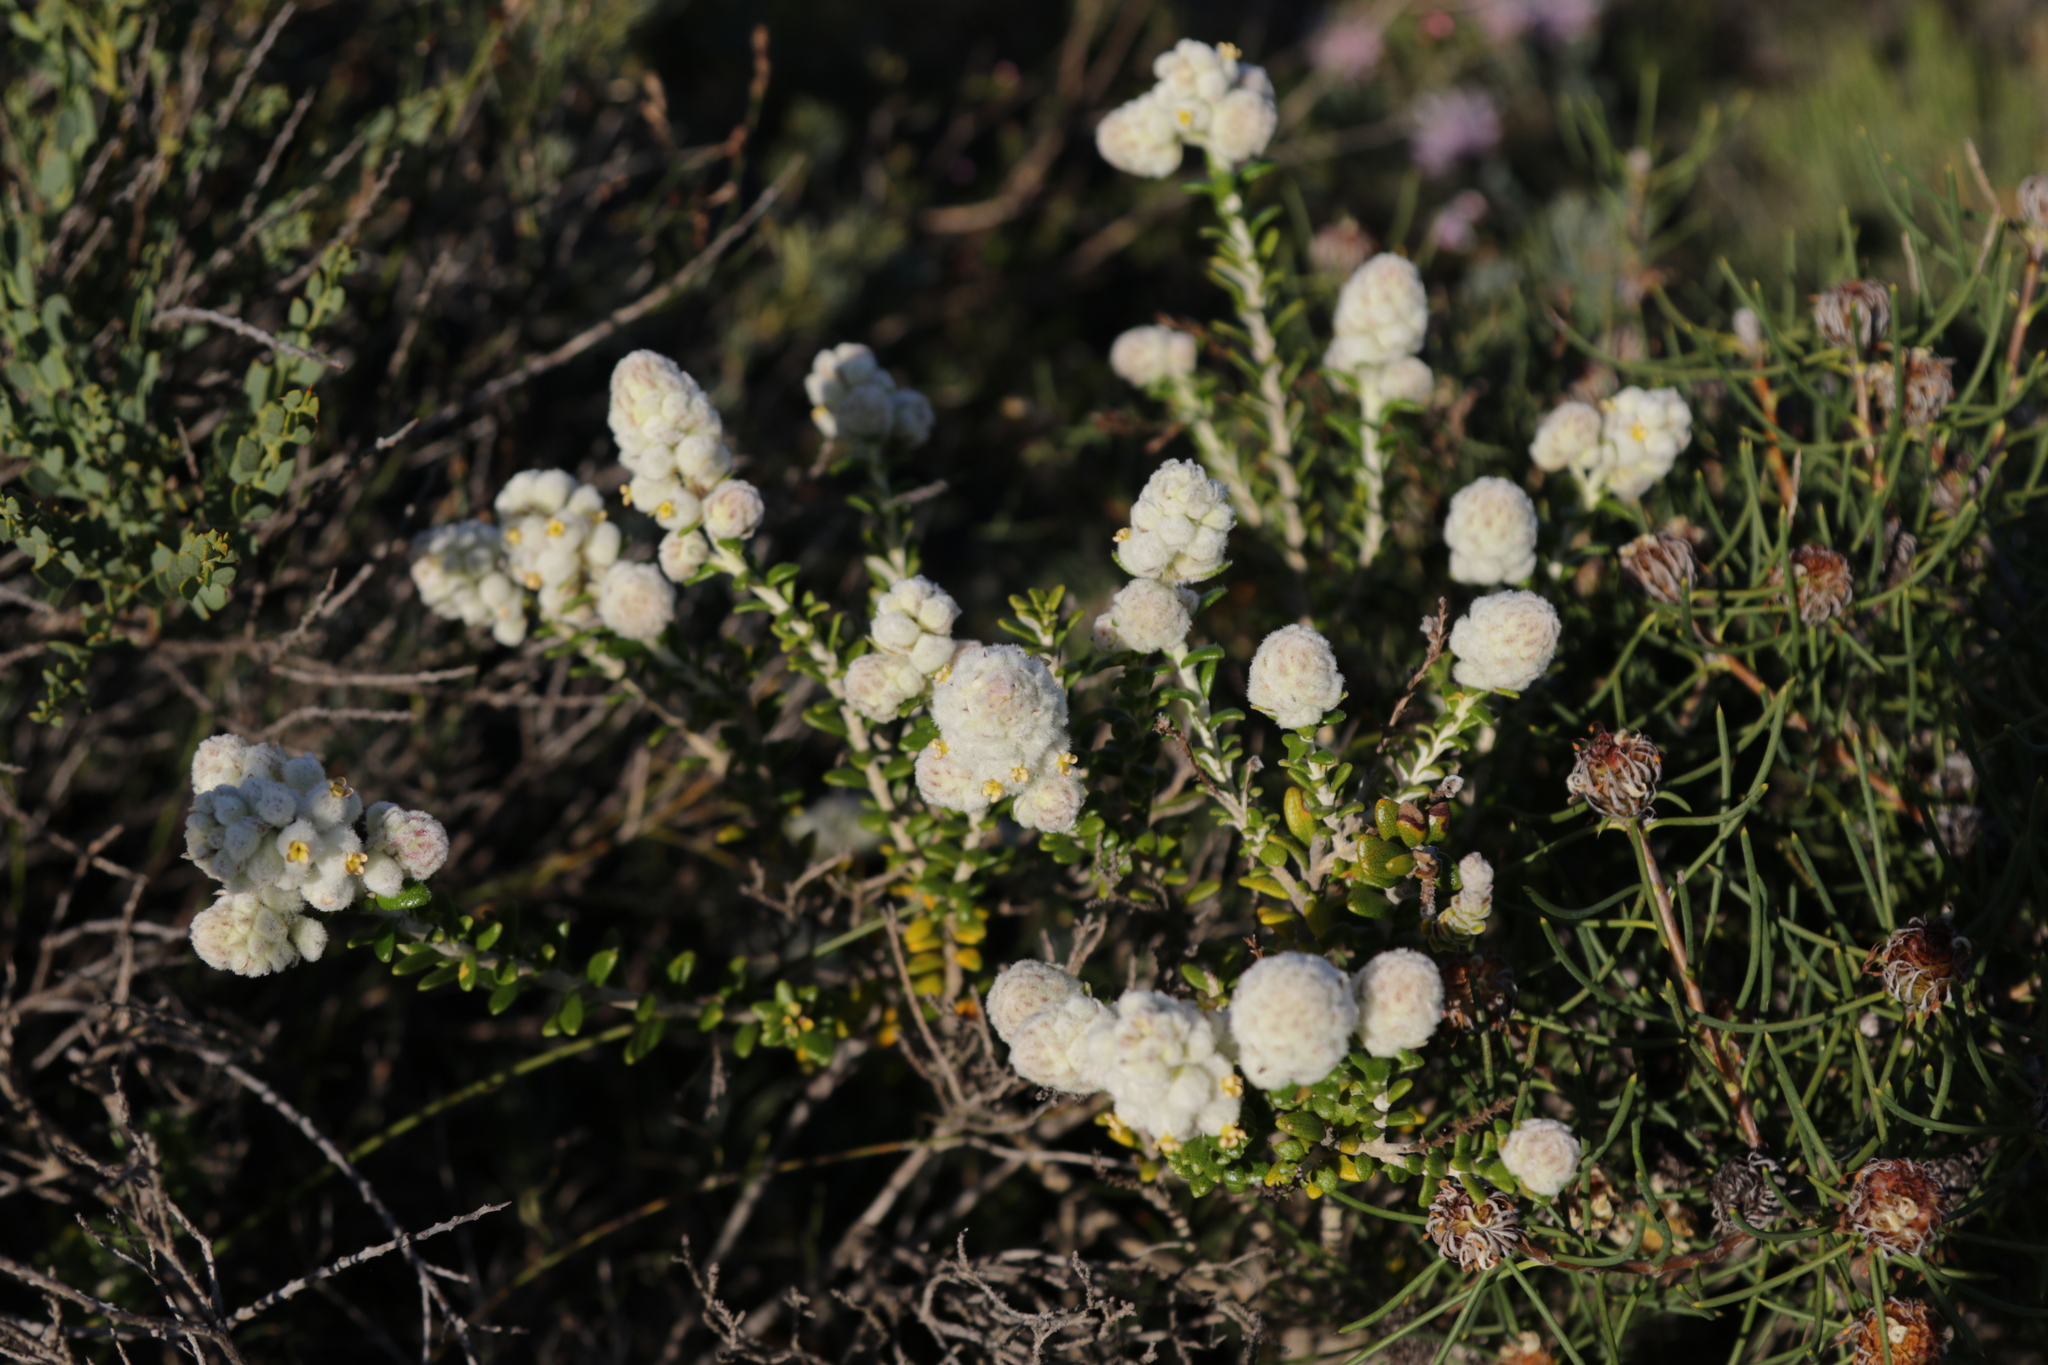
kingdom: Plantae
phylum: Tracheophyta
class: Magnoliopsida
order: Lamiales
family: Lamiaceae
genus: Physopsis
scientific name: Physopsis spicata
